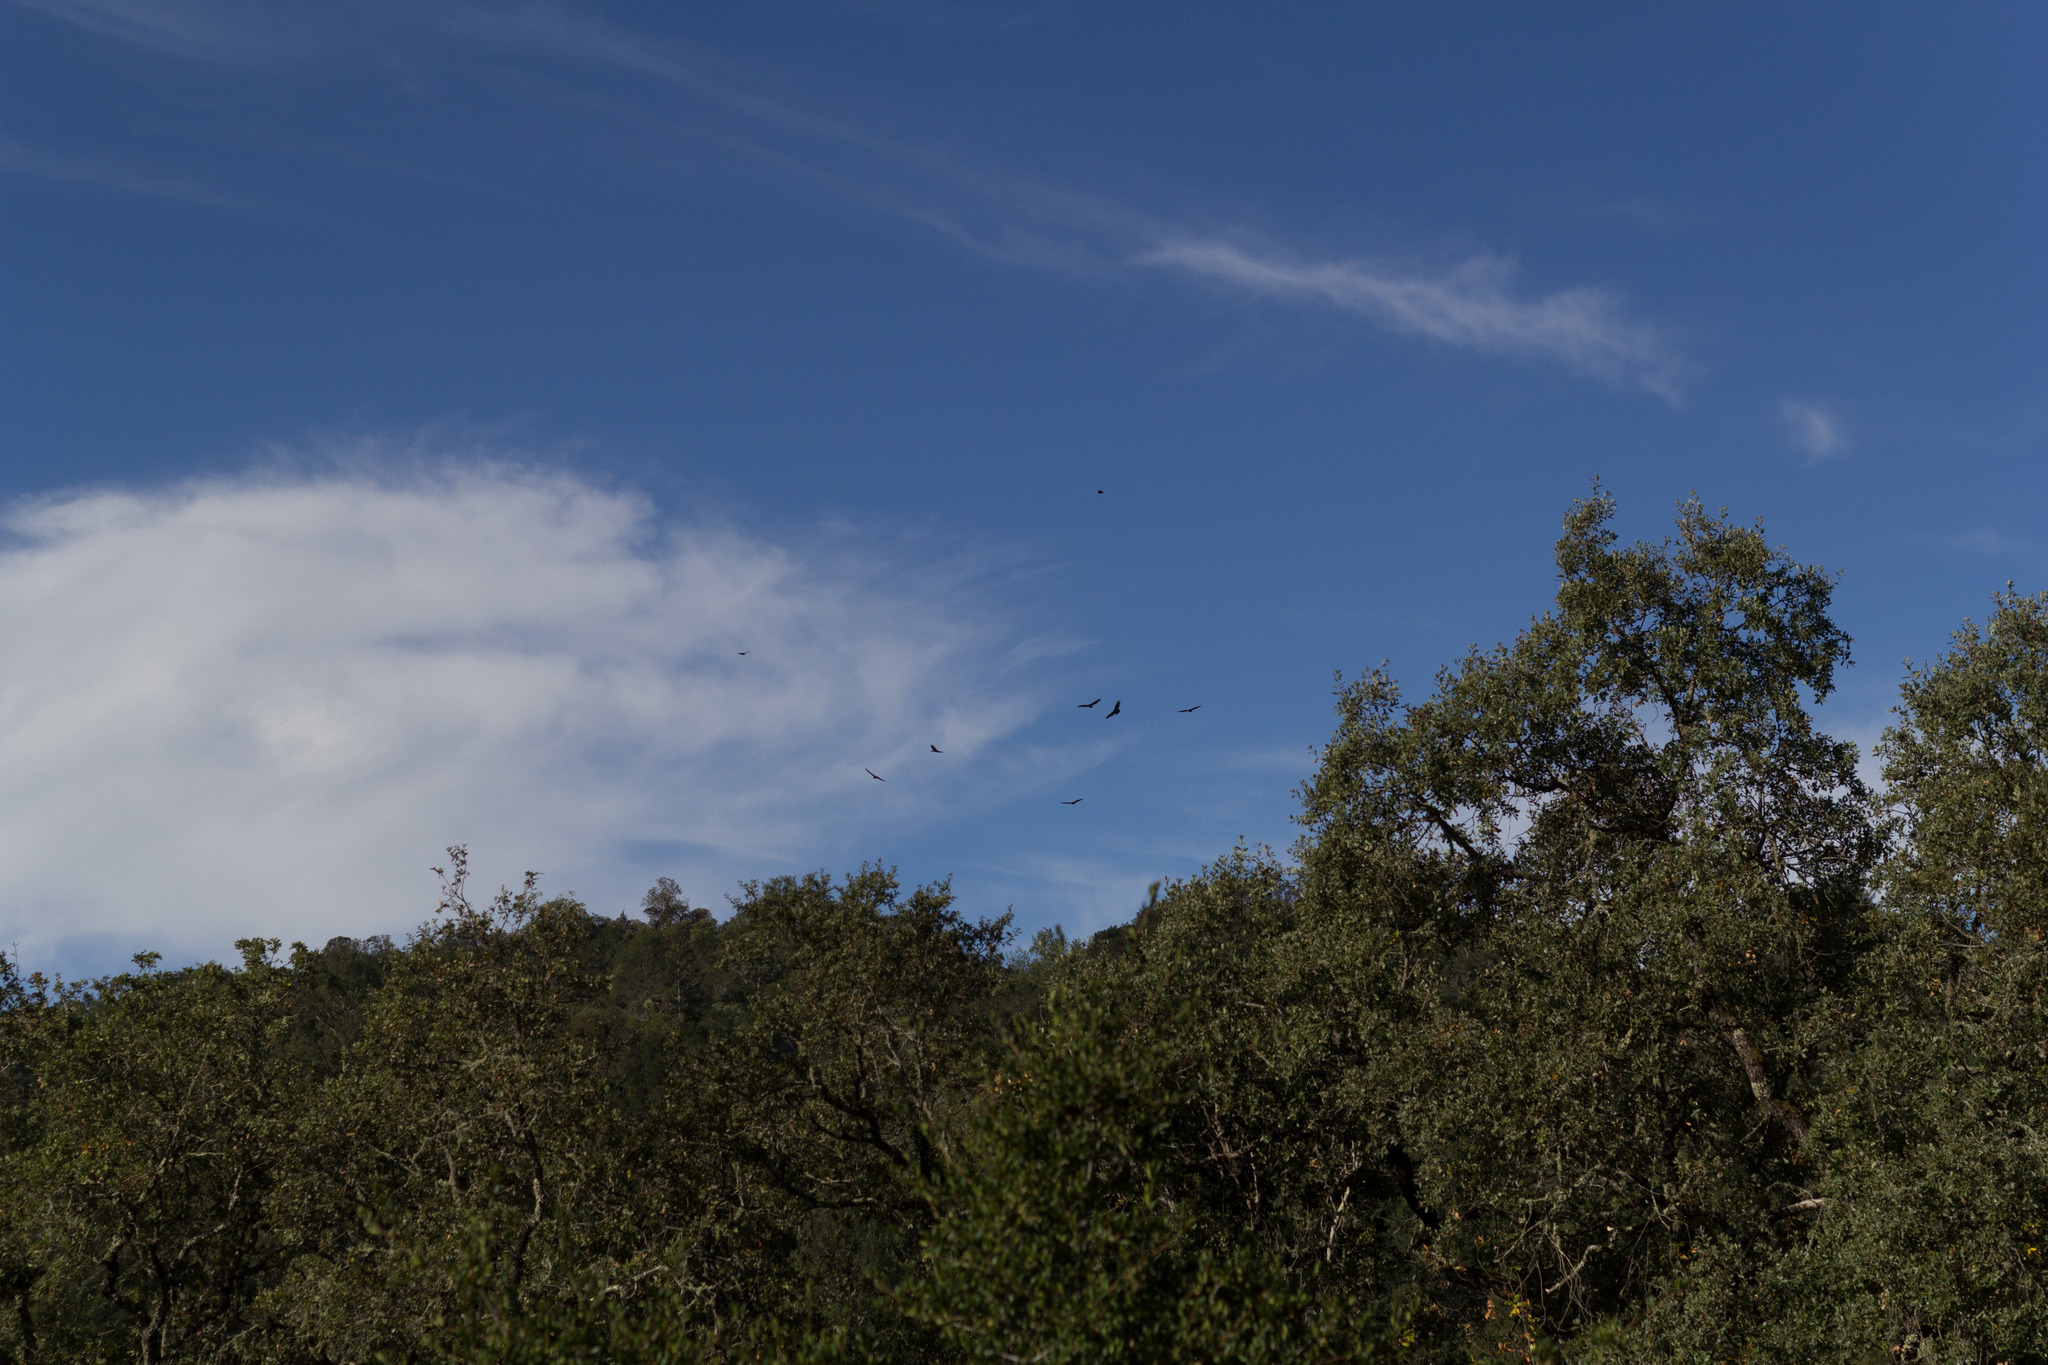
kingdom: Animalia
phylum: Chordata
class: Aves
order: Accipitriformes
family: Cathartidae
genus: Cathartes
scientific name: Cathartes aura
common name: Turkey vulture
